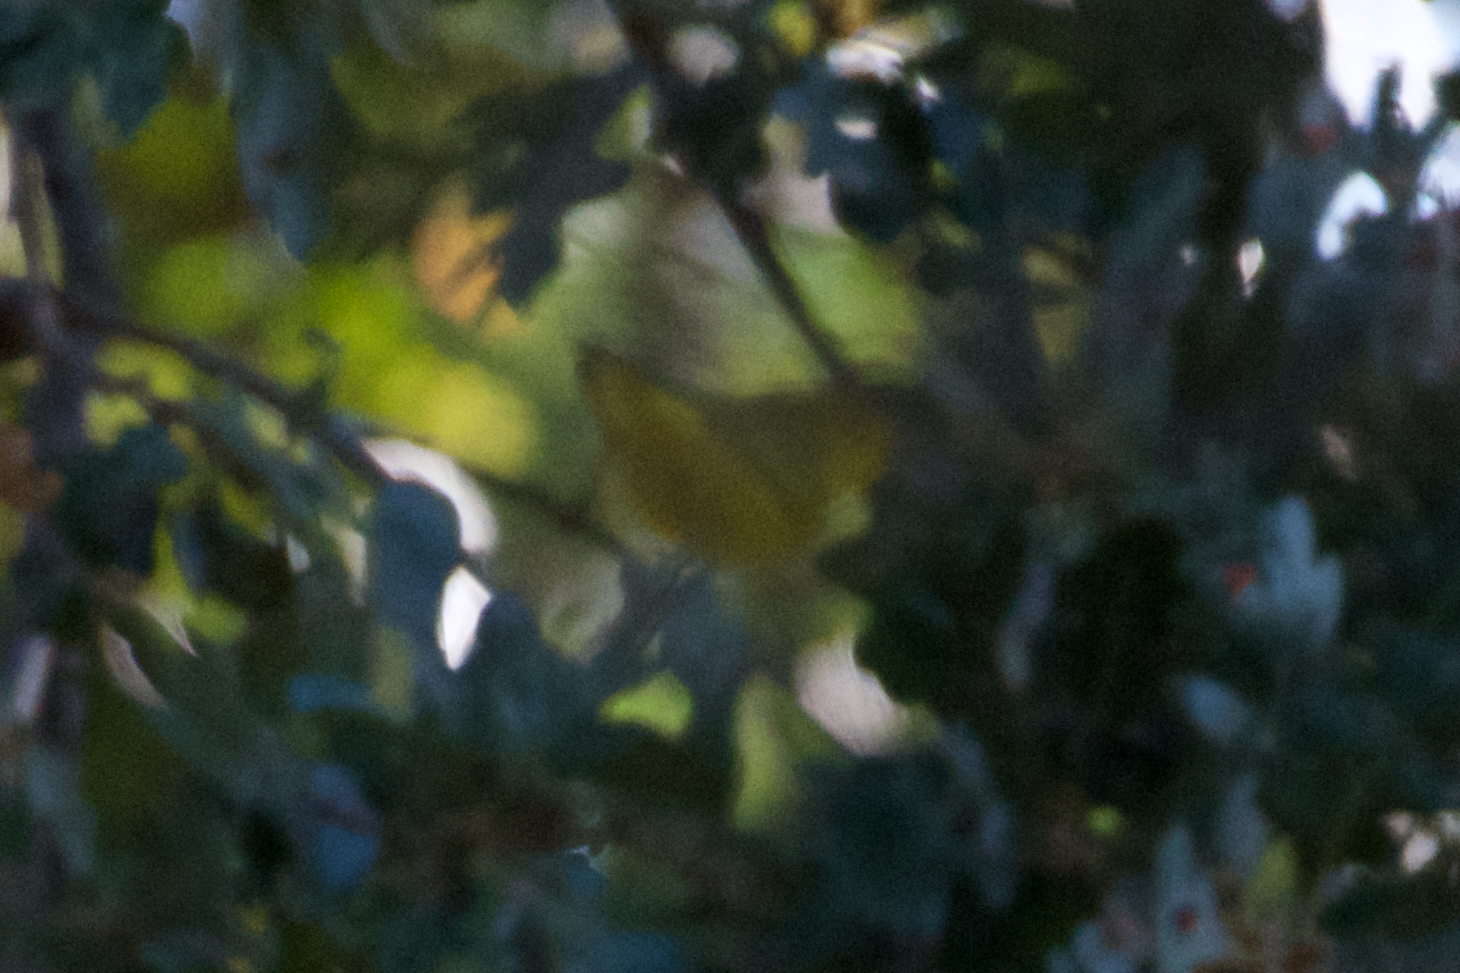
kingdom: Animalia
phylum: Chordata
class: Aves
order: Passeriformes
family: Parulidae
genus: Setophaga
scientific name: Setophaga petechia
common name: Yellow warbler
